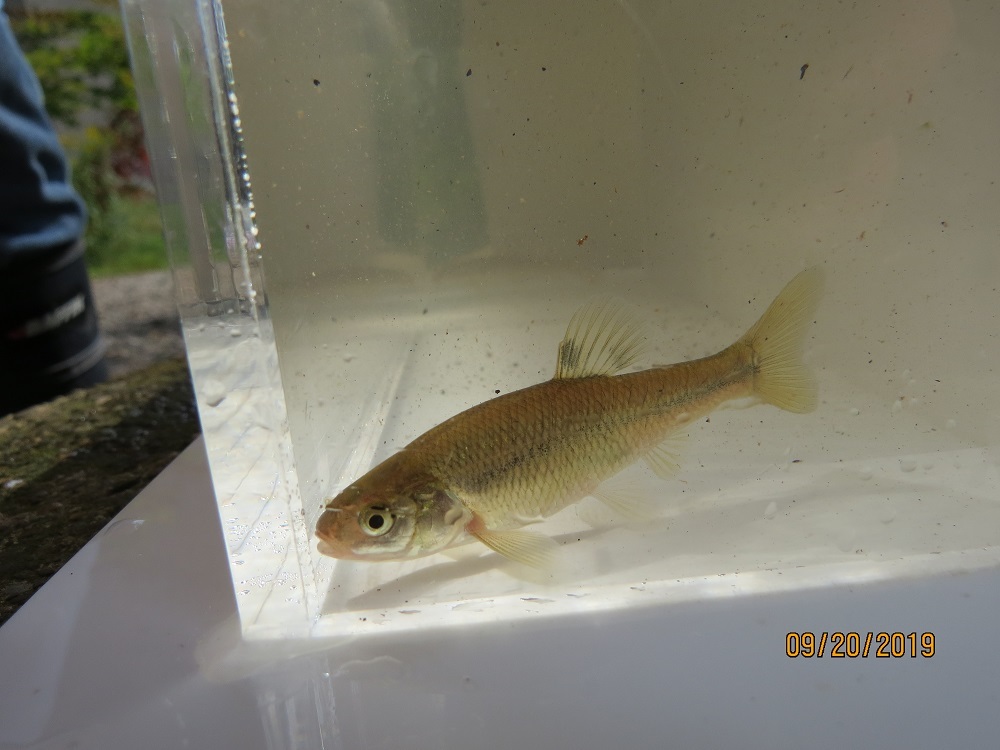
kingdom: Animalia
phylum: Chordata
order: Cypriniformes
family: Cyprinidae
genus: Pimephales
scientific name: Pimephales promelas
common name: Fathead minnow
